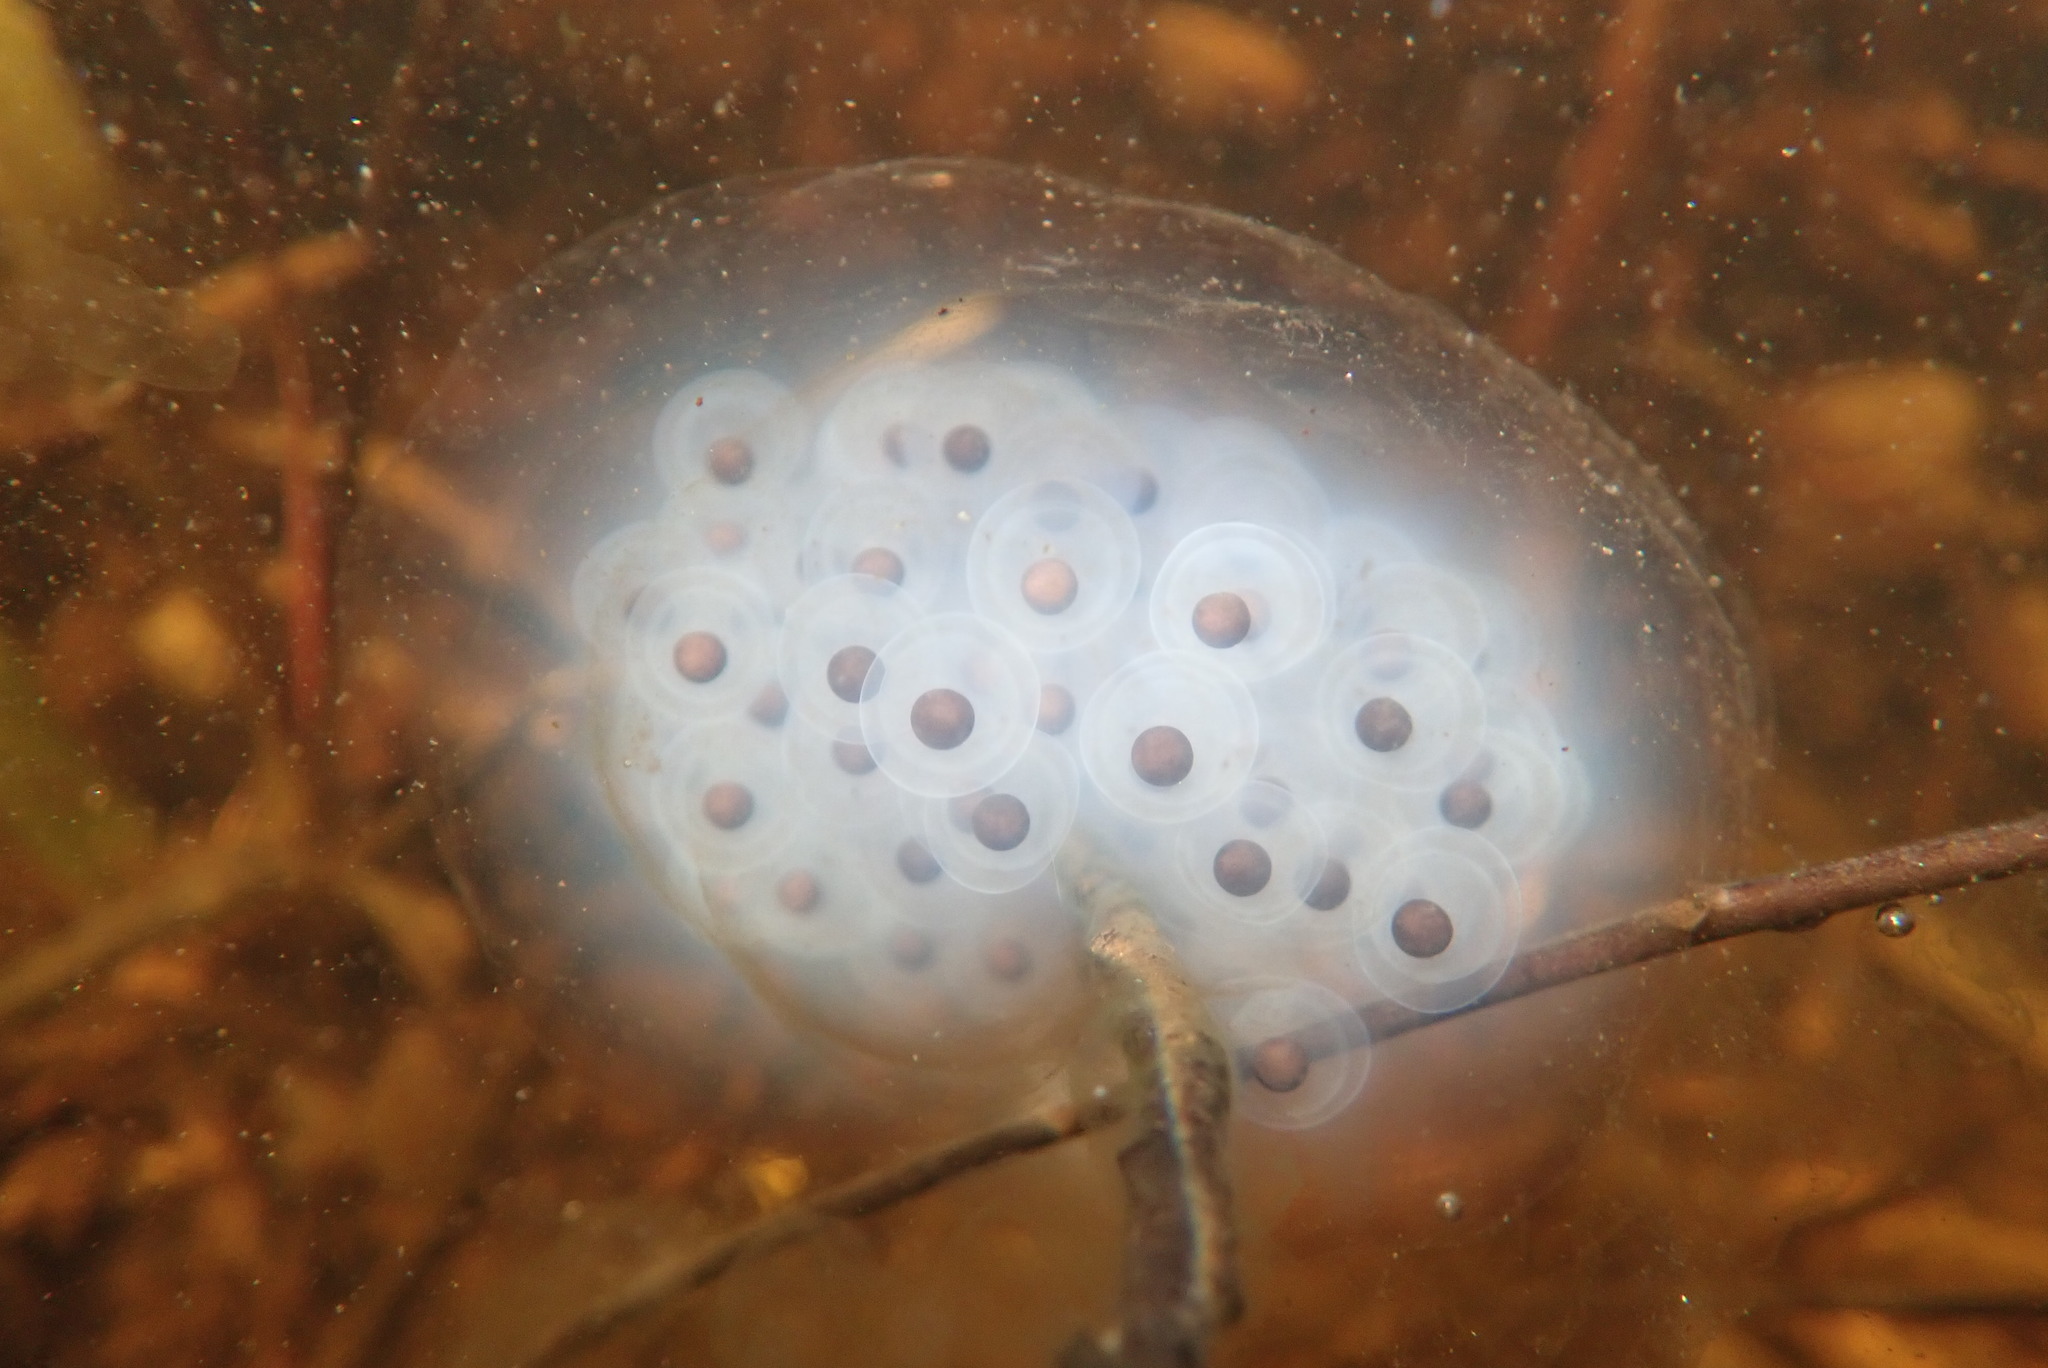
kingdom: Animalia
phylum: Chordata
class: Amphibia
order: Caudata
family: Ambystomatidae
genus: Ambystoma
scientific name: Ambystoma maculatum
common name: Spotted salamander
